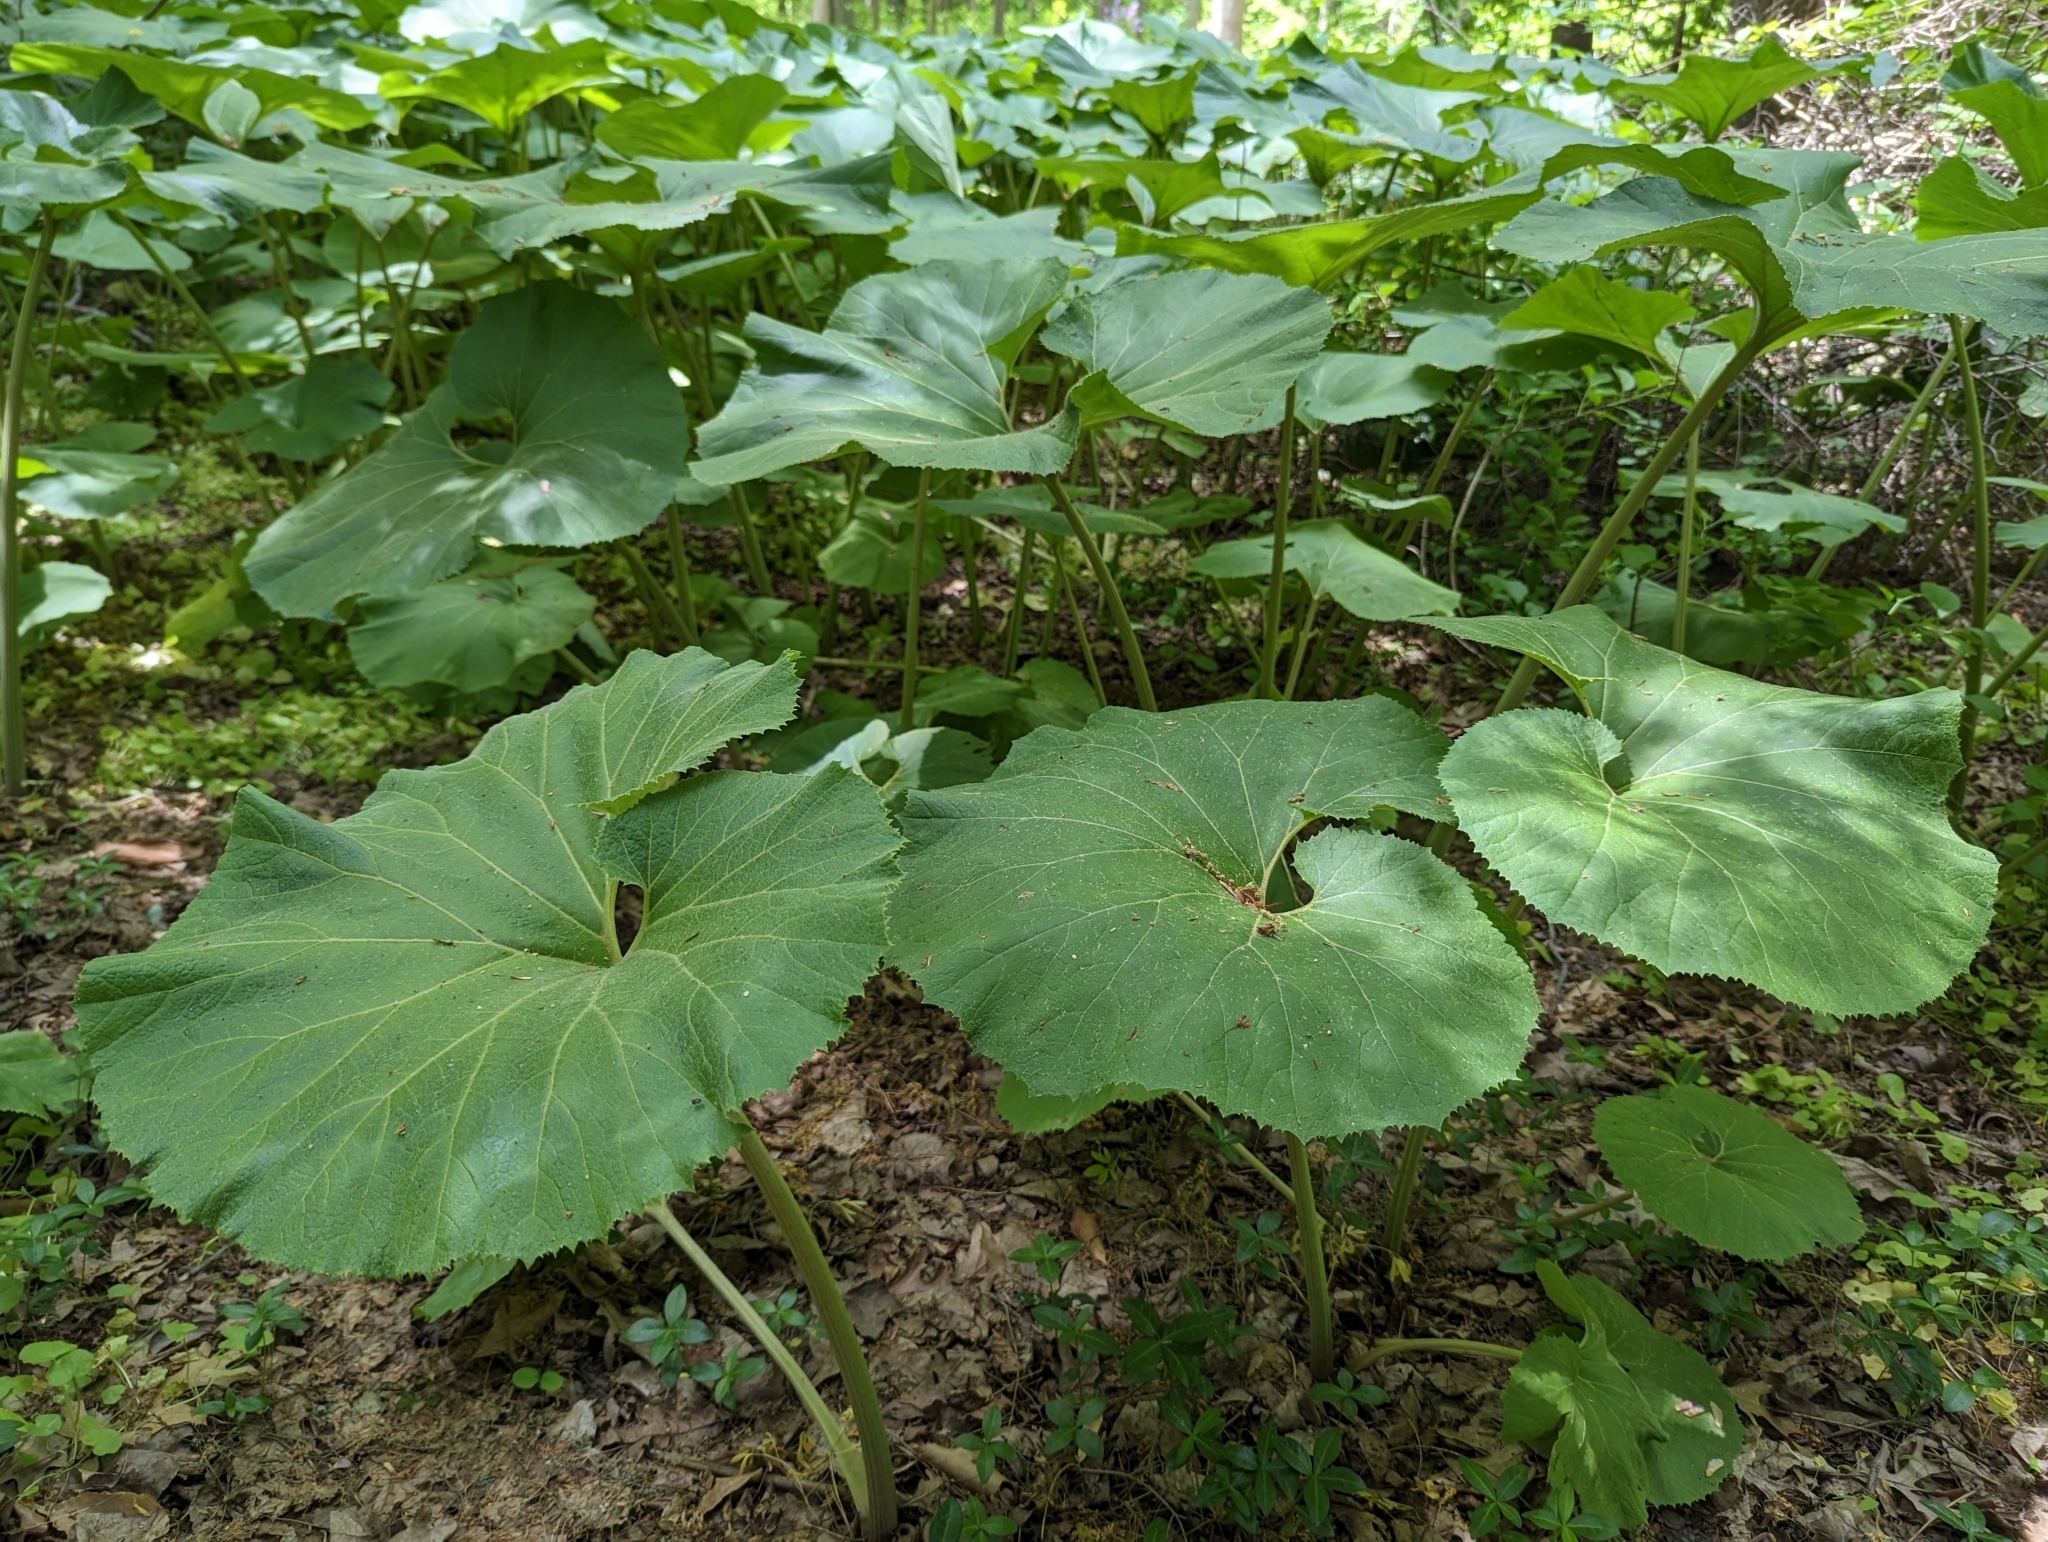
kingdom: Plantae
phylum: Tracheophyta
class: Magnoliopsida
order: Asterales
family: Asteraceae
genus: Petasites
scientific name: Petasites japonicus
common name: Giant butterbur
